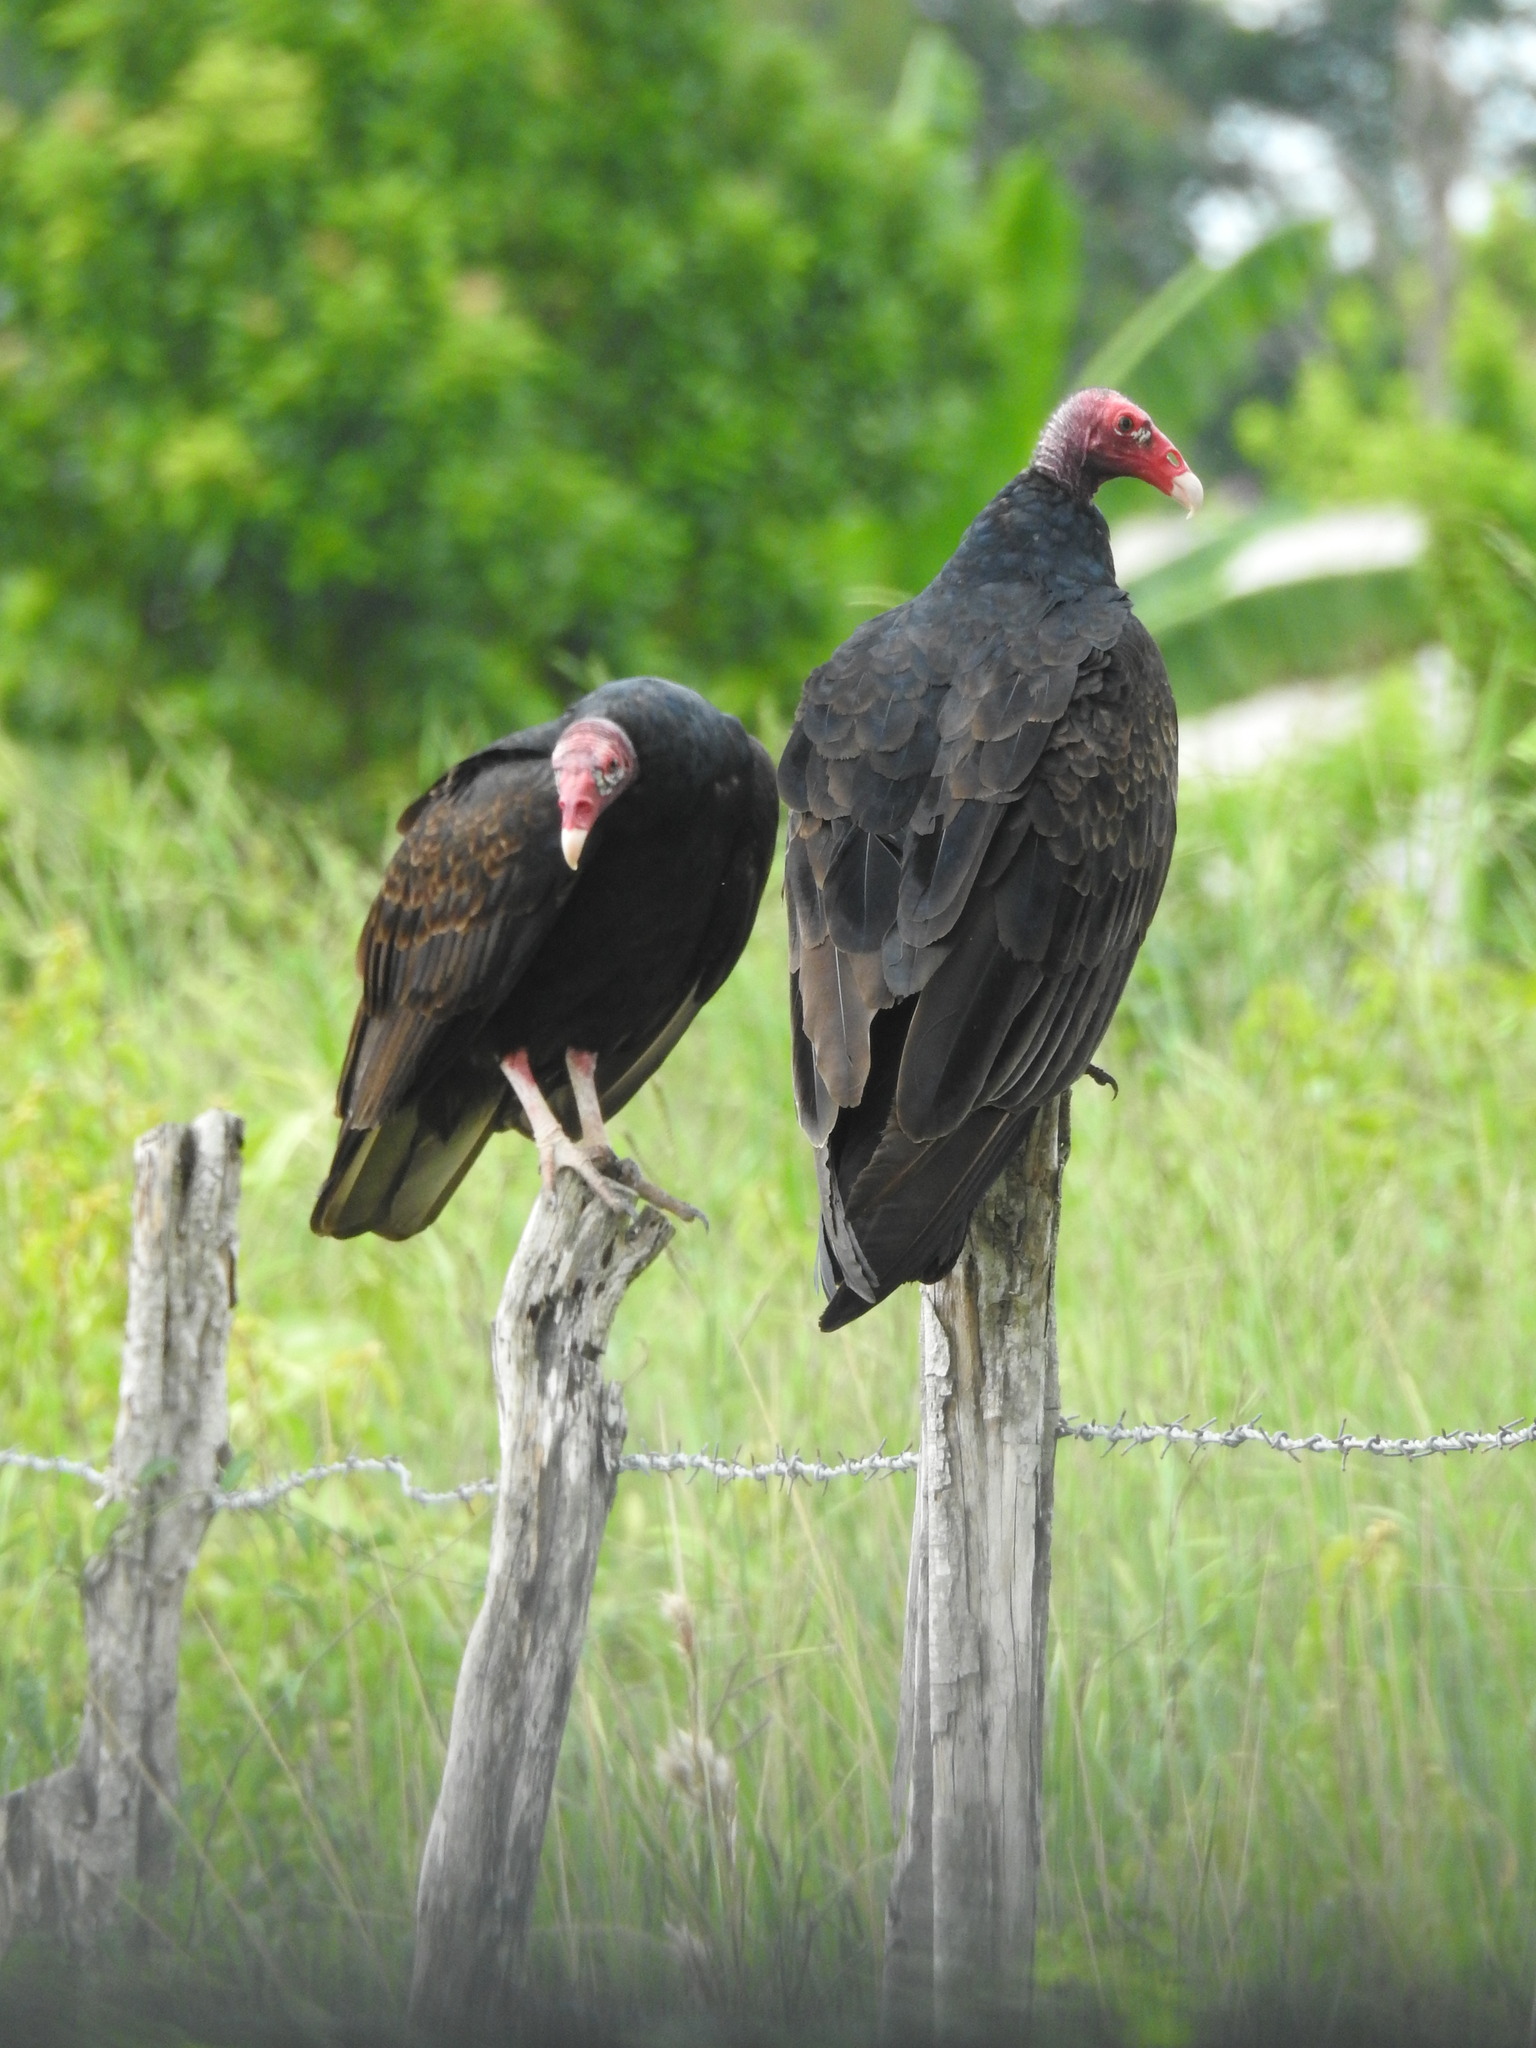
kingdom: Animalia
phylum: Chordata
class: Aves
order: Accipitriformes
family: Cathartidae
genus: Cathartes
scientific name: Cathartes aura
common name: Turkey vulture
